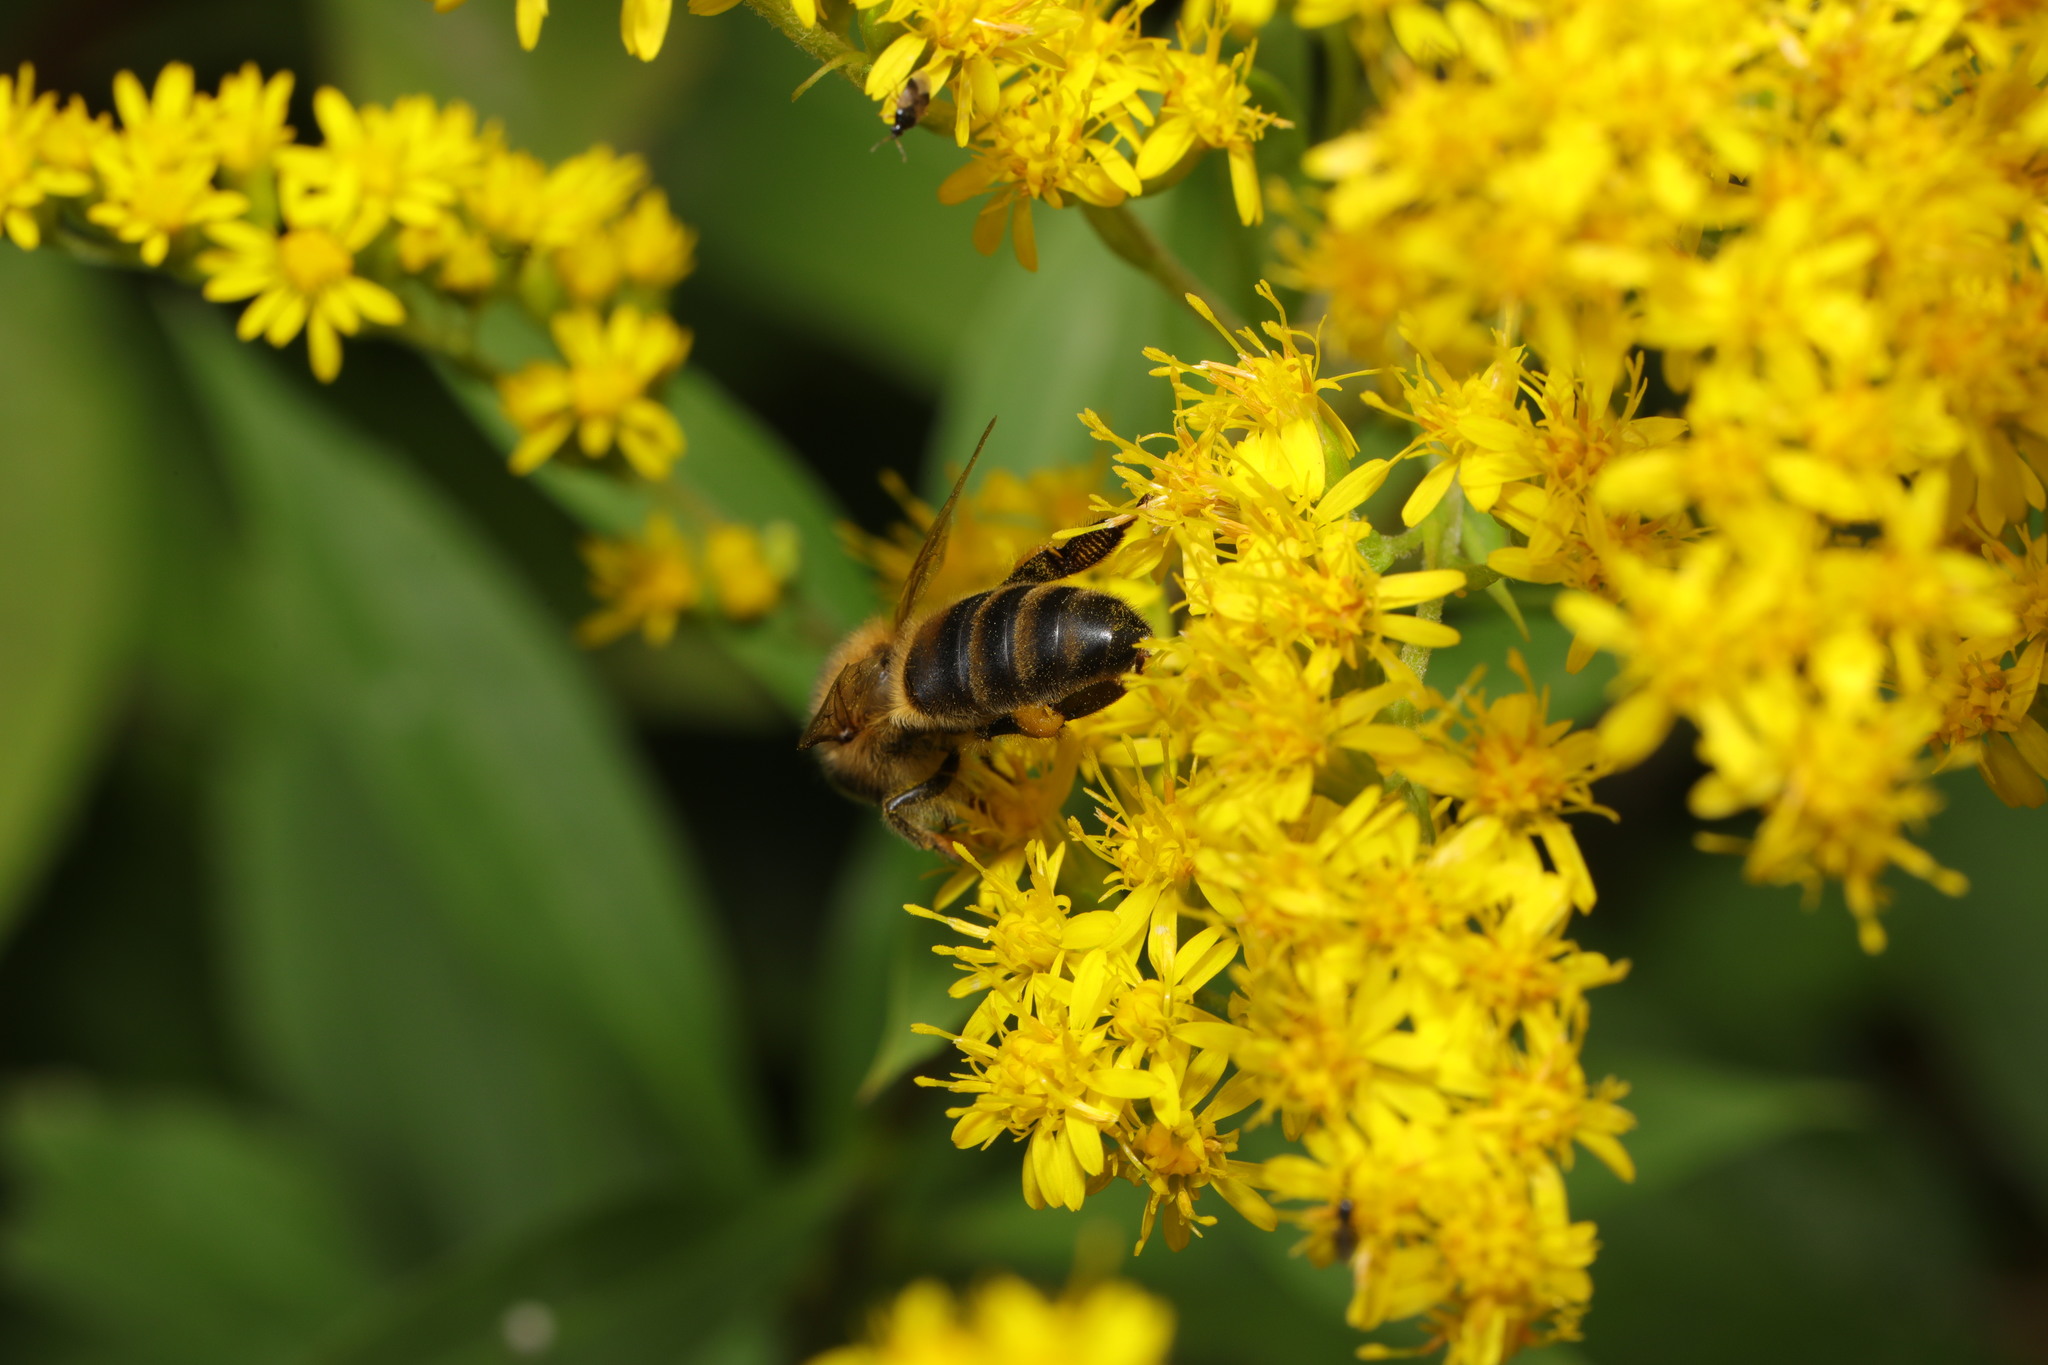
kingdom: Animalia
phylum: Arthropoda
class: Insecta
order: Hymenoptera
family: Apidae
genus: Apis
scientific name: Apis mellifera
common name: Honey bee
